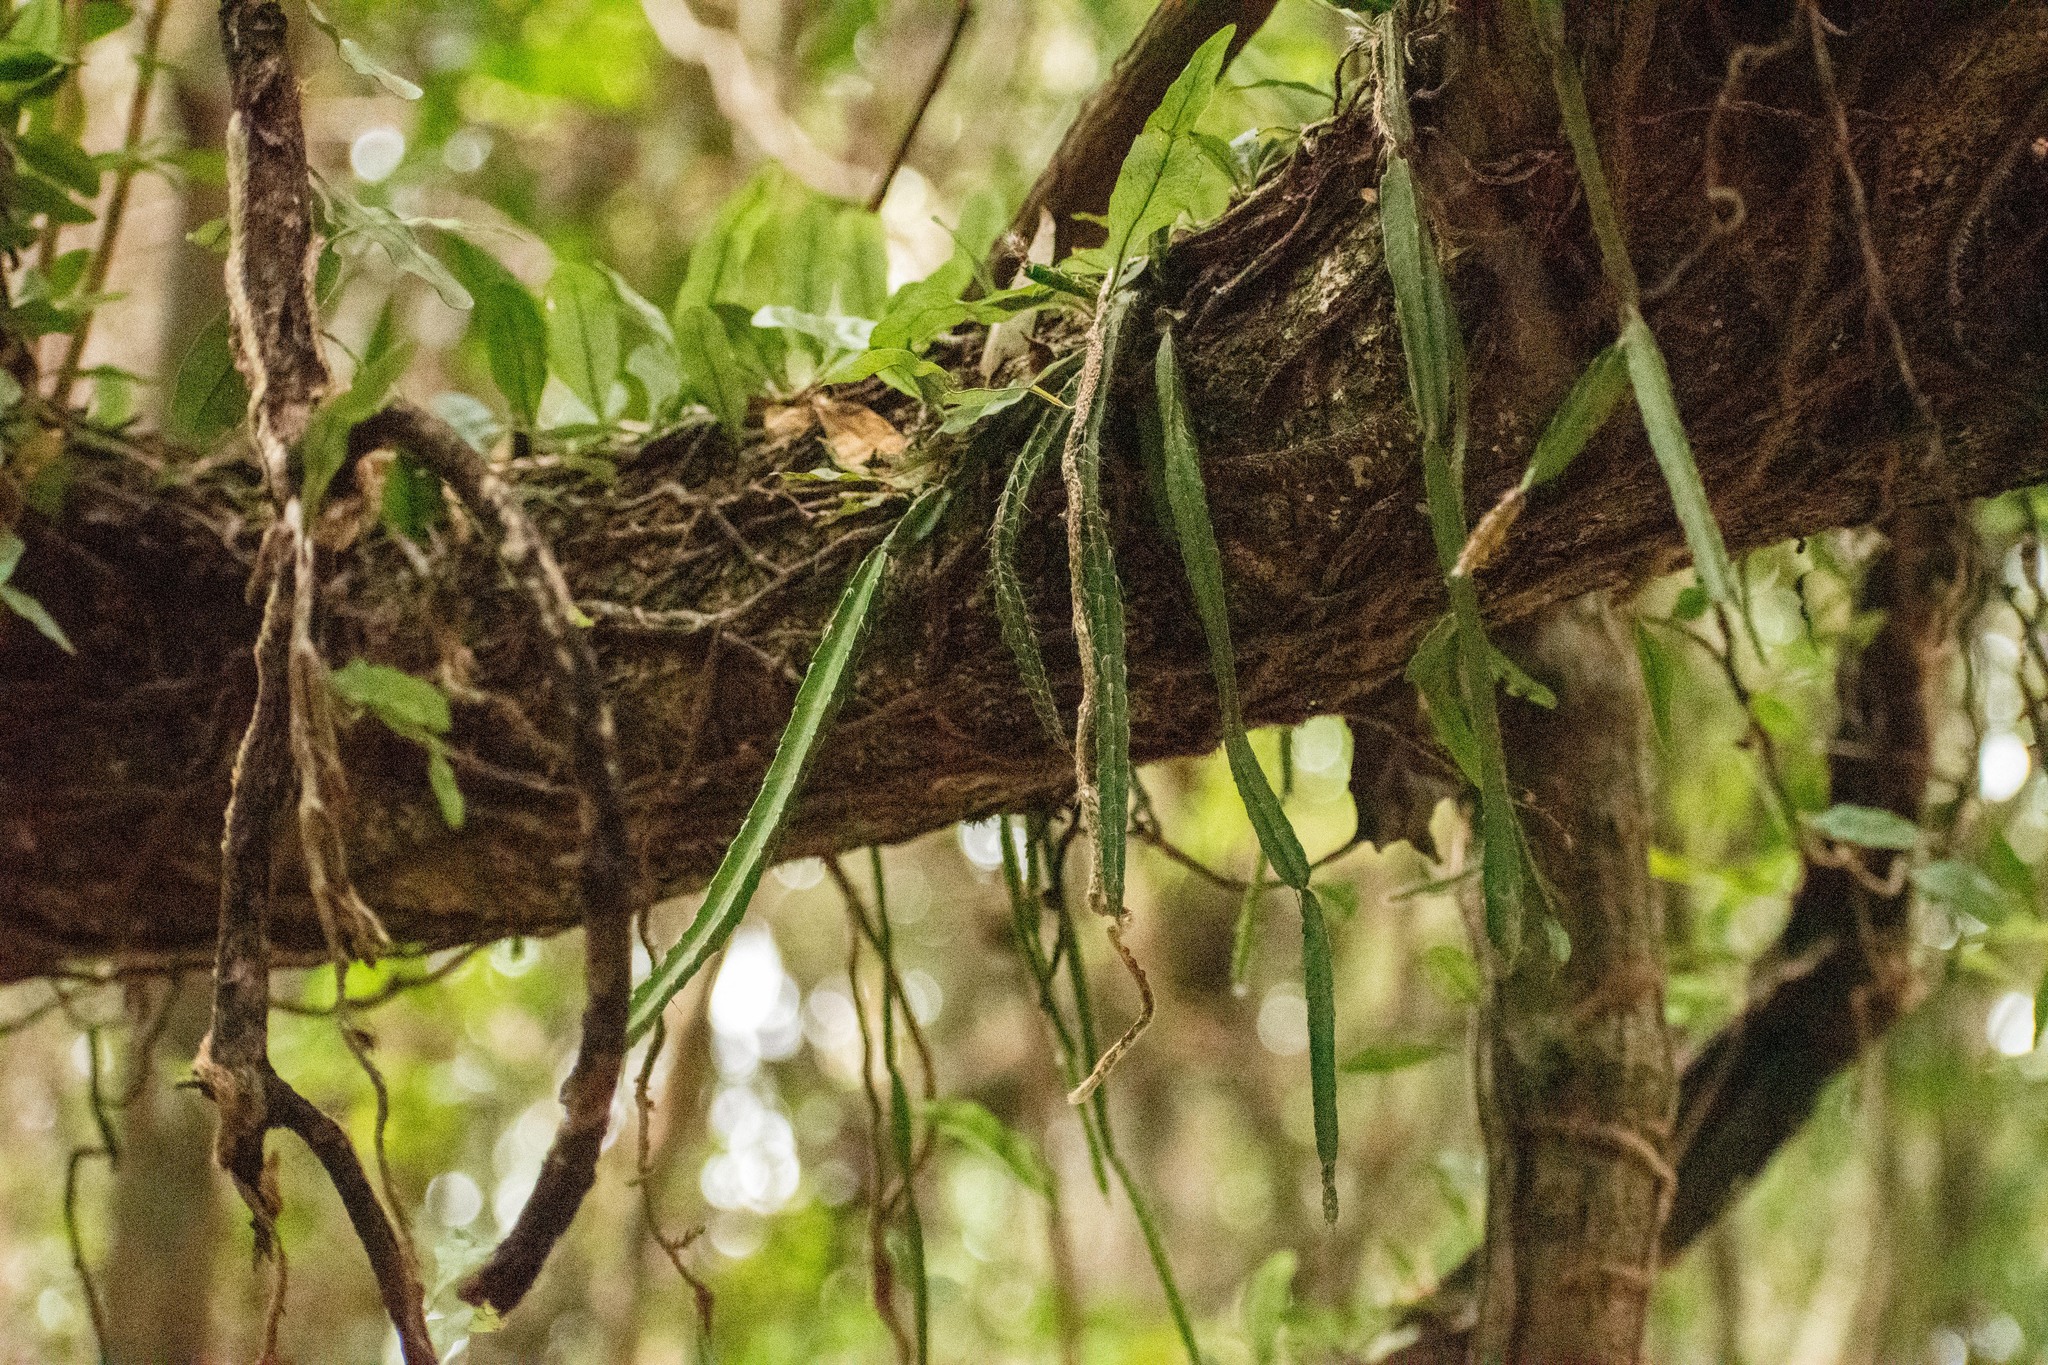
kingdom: Plantae
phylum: Tracheophyta
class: Magnoliopsida
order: Caryophyllales
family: Cactaceae
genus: Lepismium
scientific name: Lepismium cruciforme
